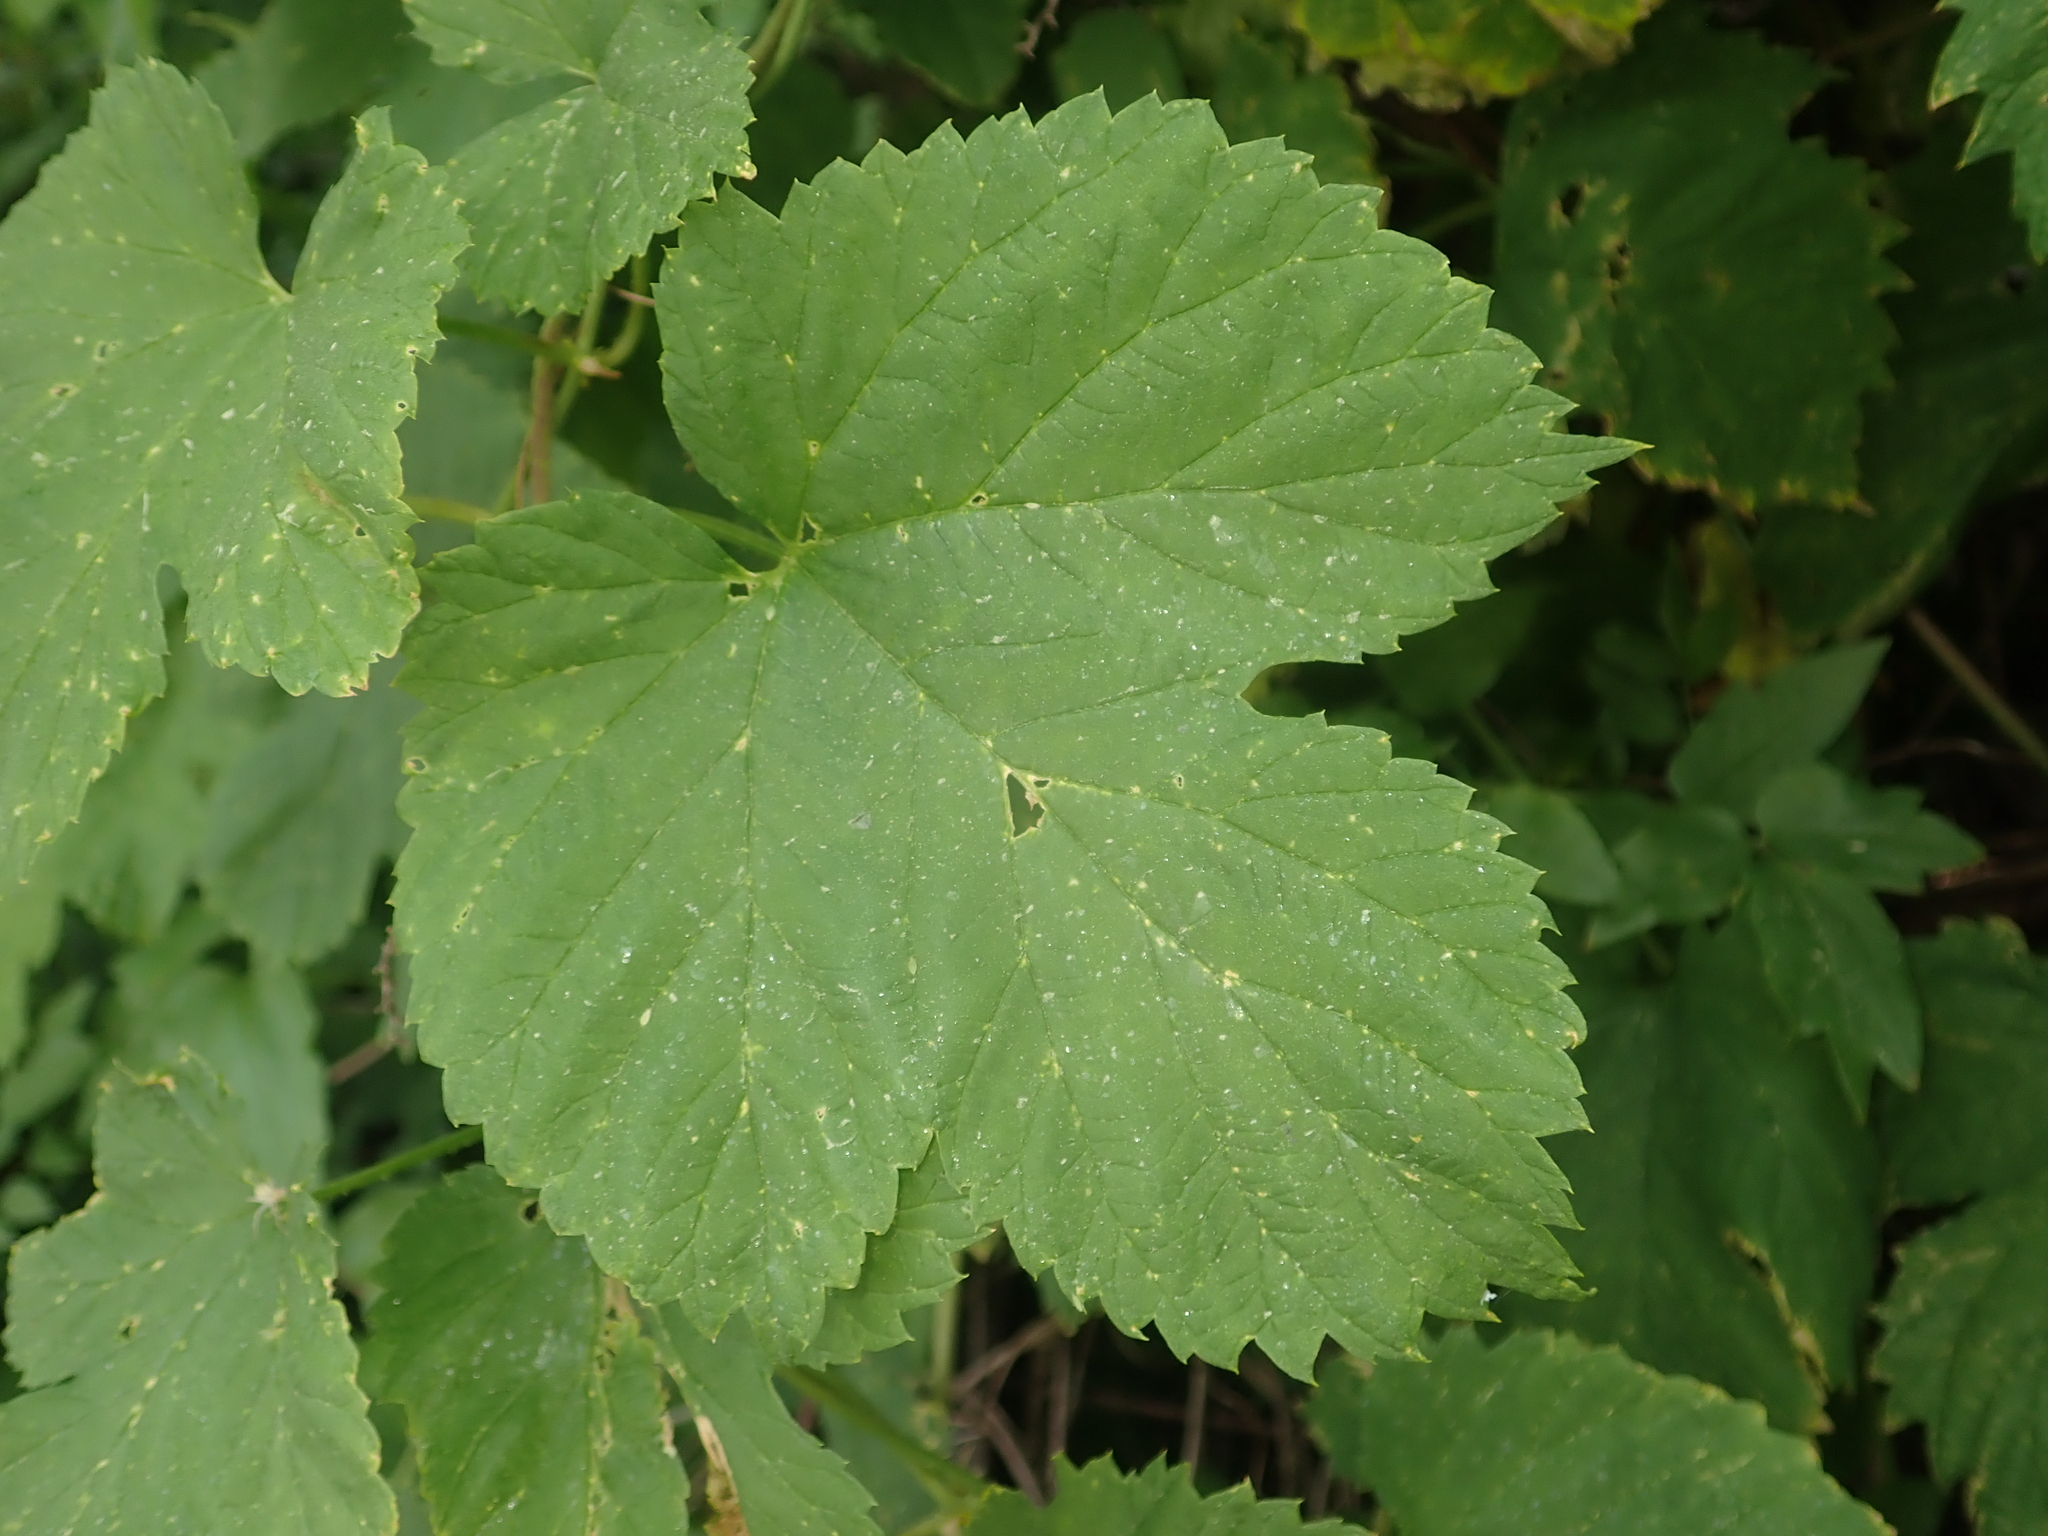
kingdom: Plantae
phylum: Tracheophyta
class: Magnoliopsida
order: Rosales
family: Cannabaceae
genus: Humulus
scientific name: Humulus lupulus
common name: Hop
